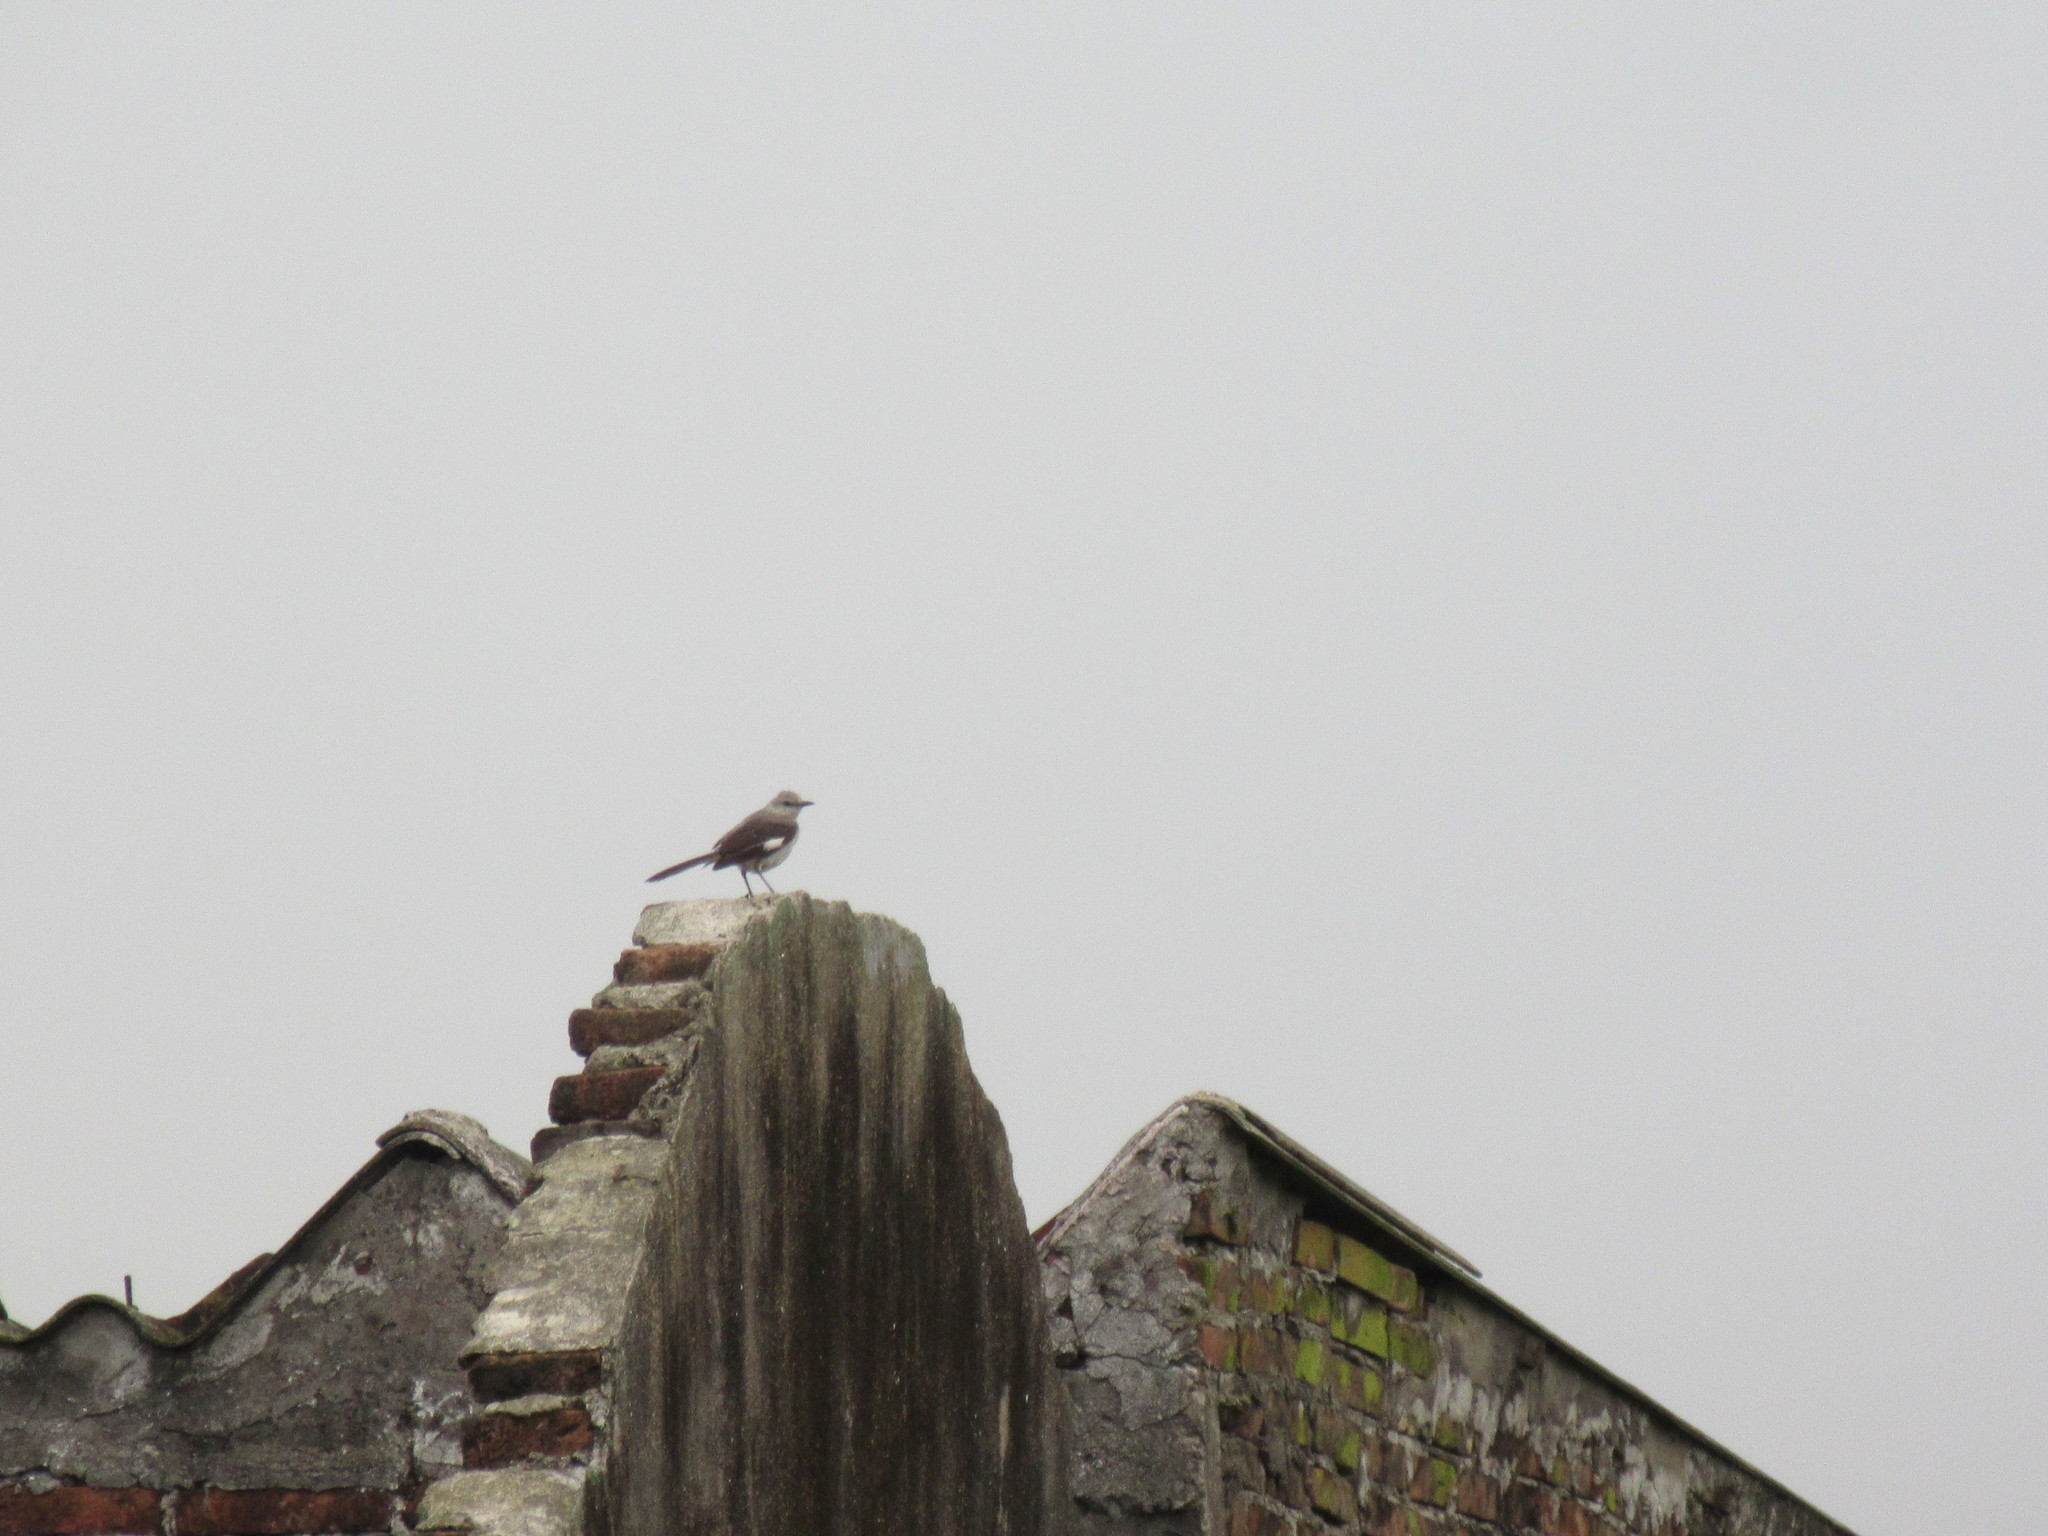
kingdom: Animalia
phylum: Chordata
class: Aves
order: Passeriformes
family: Mimidae
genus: Mimus
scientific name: Mimus polyglottos
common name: Northern mockingbird
